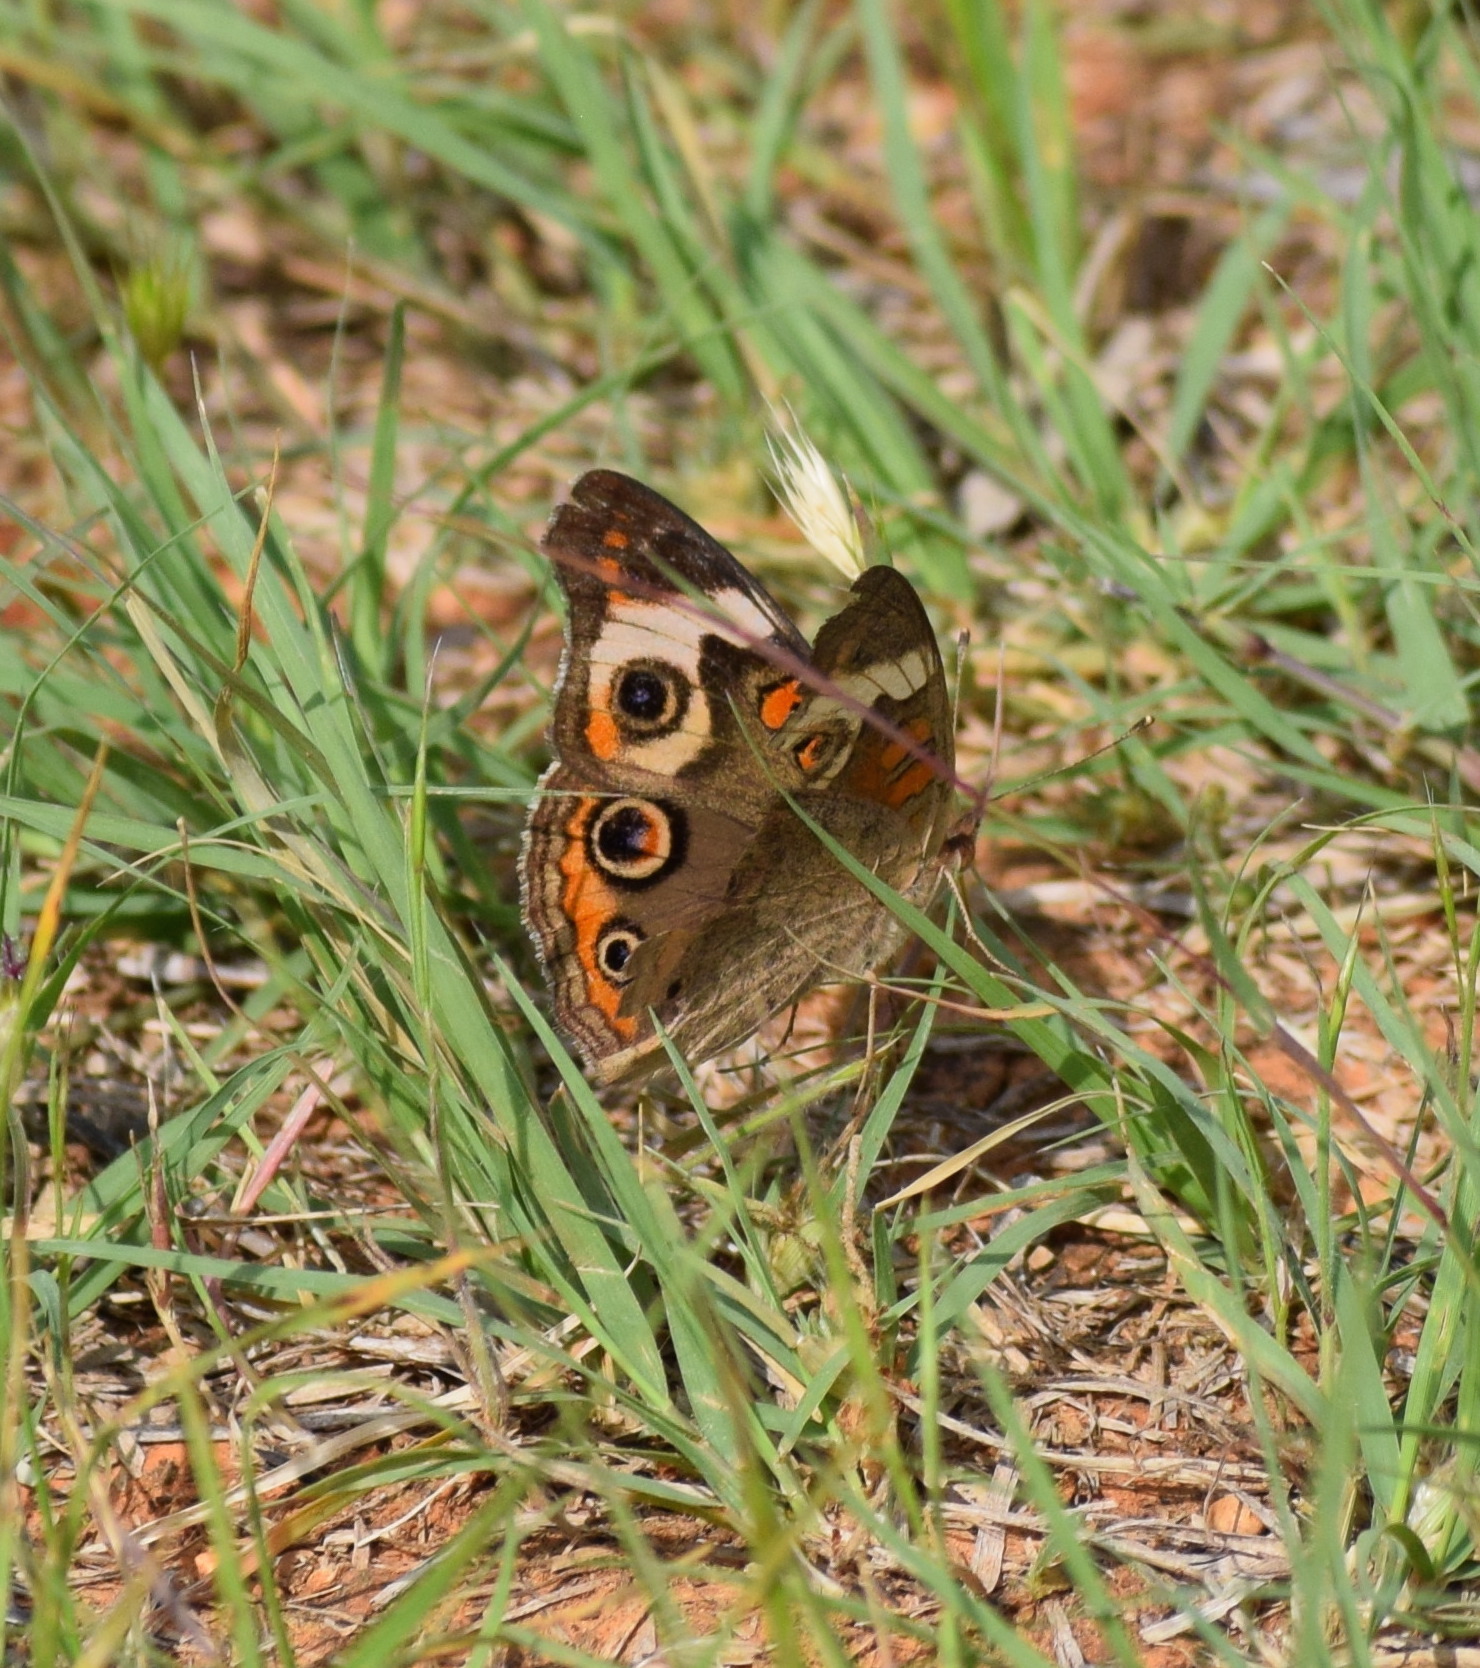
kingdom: Animalia
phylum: Arthropoda
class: Insecta
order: Lepidoptera
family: Nymphalidae
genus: Junonia
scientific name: Junonia coenia
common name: Common buckeye
